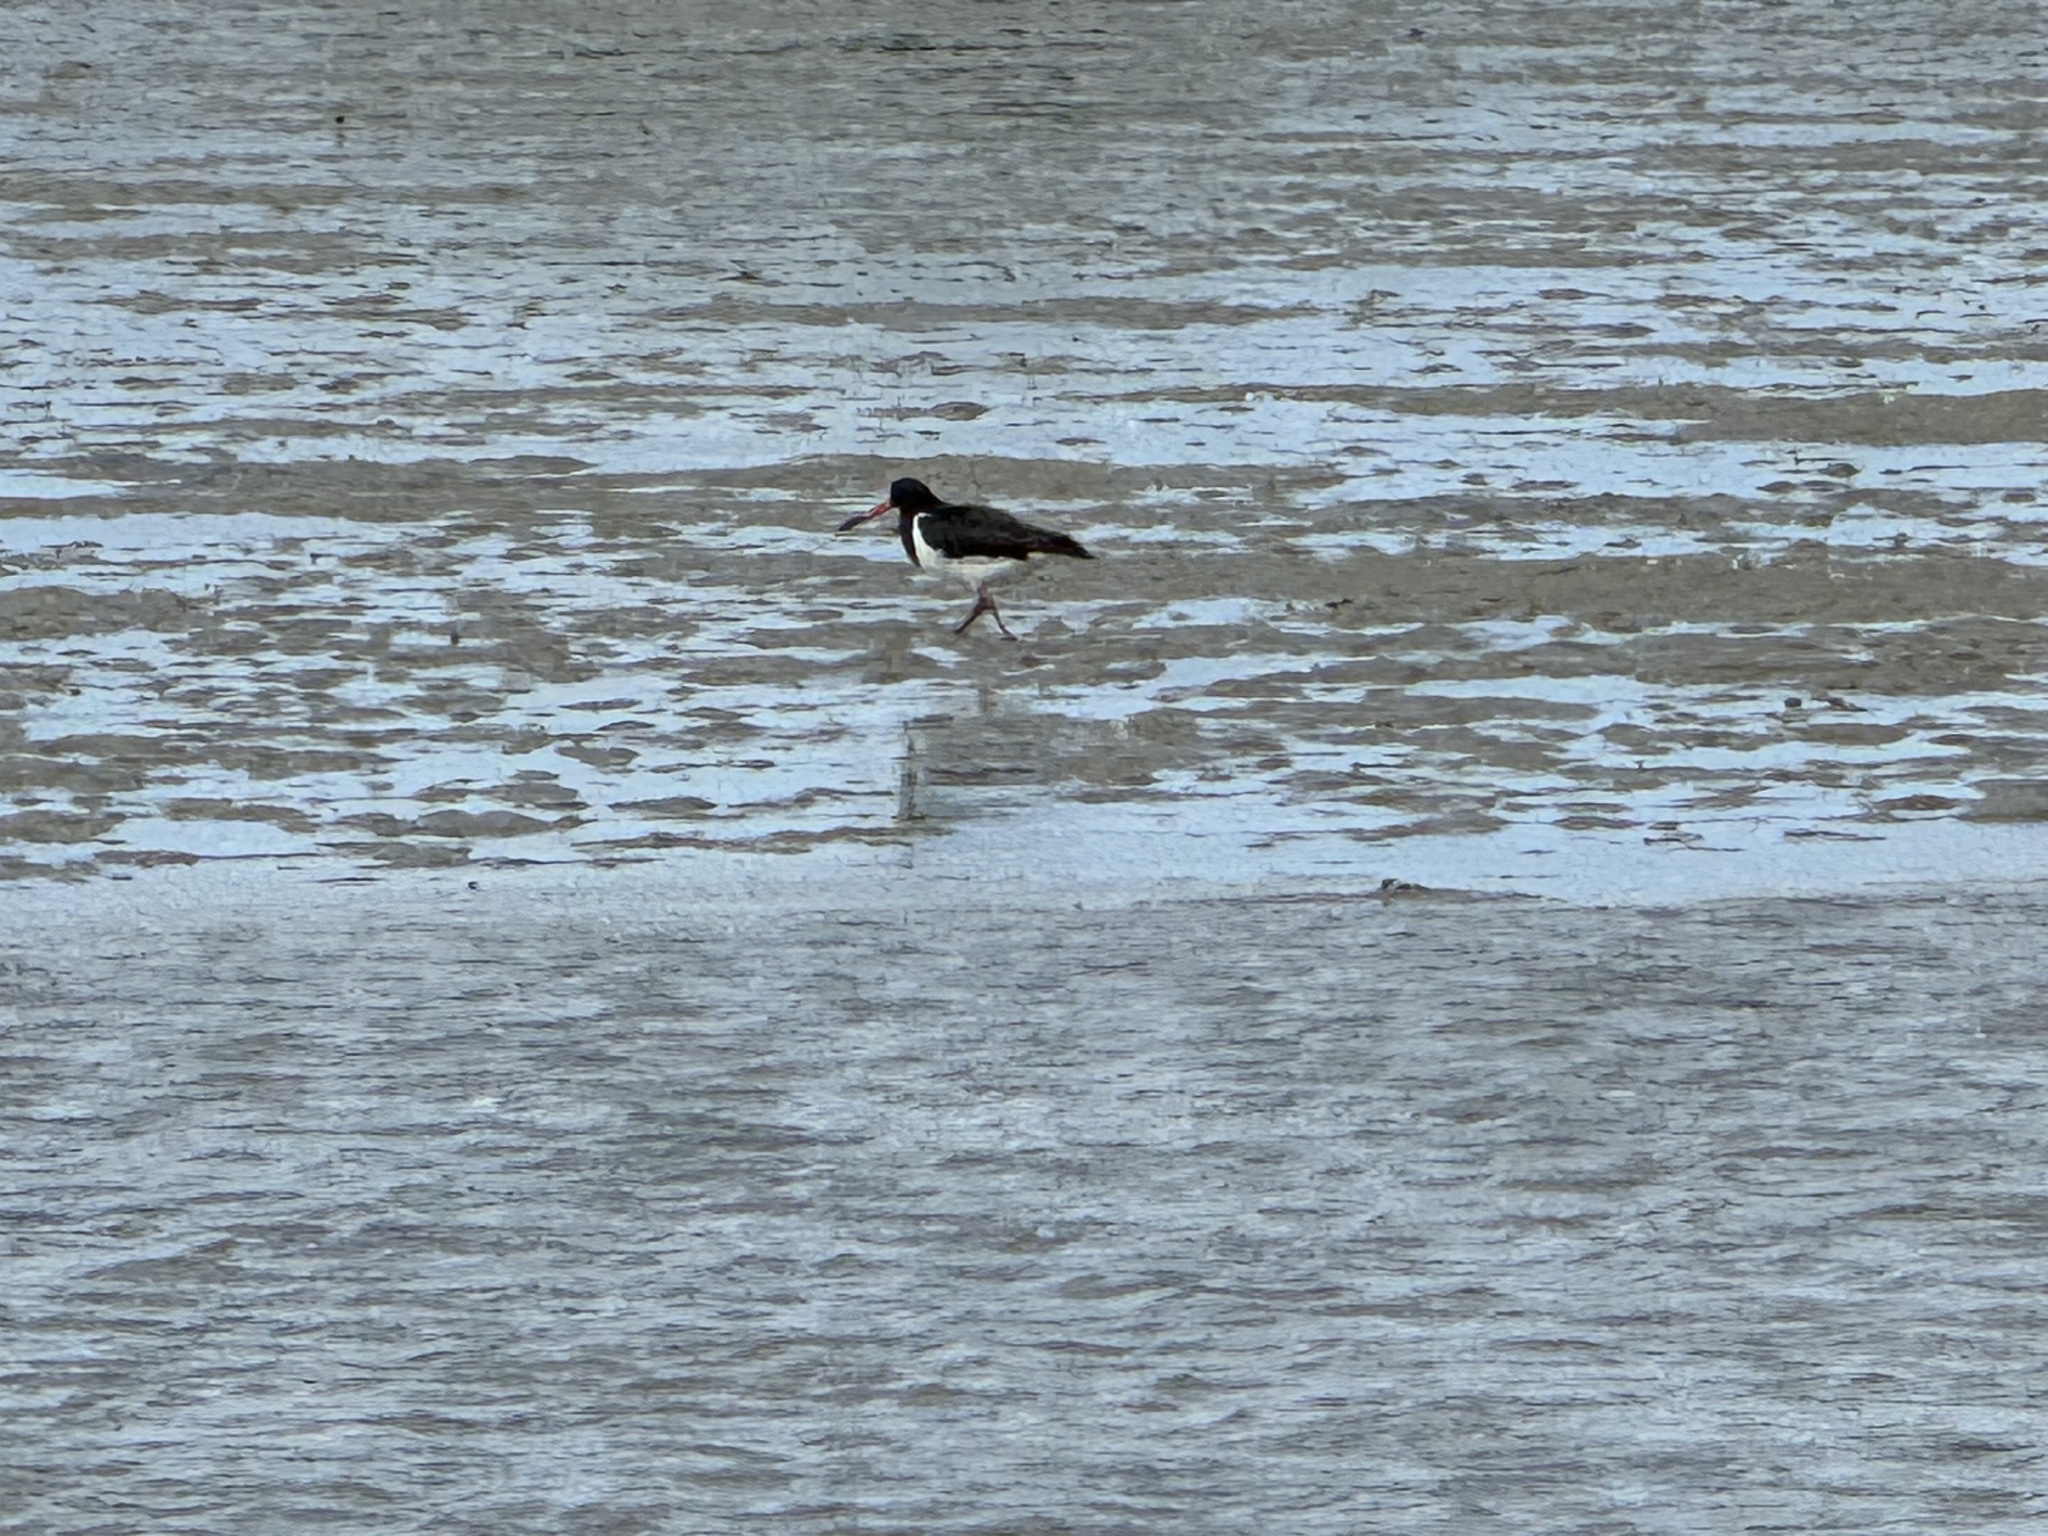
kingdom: Animalia
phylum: Chordata
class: Aves
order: Charadriiformes
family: Haematopodidae
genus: Haematopus
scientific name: Haematopus finschi
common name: South island oystercatcher
